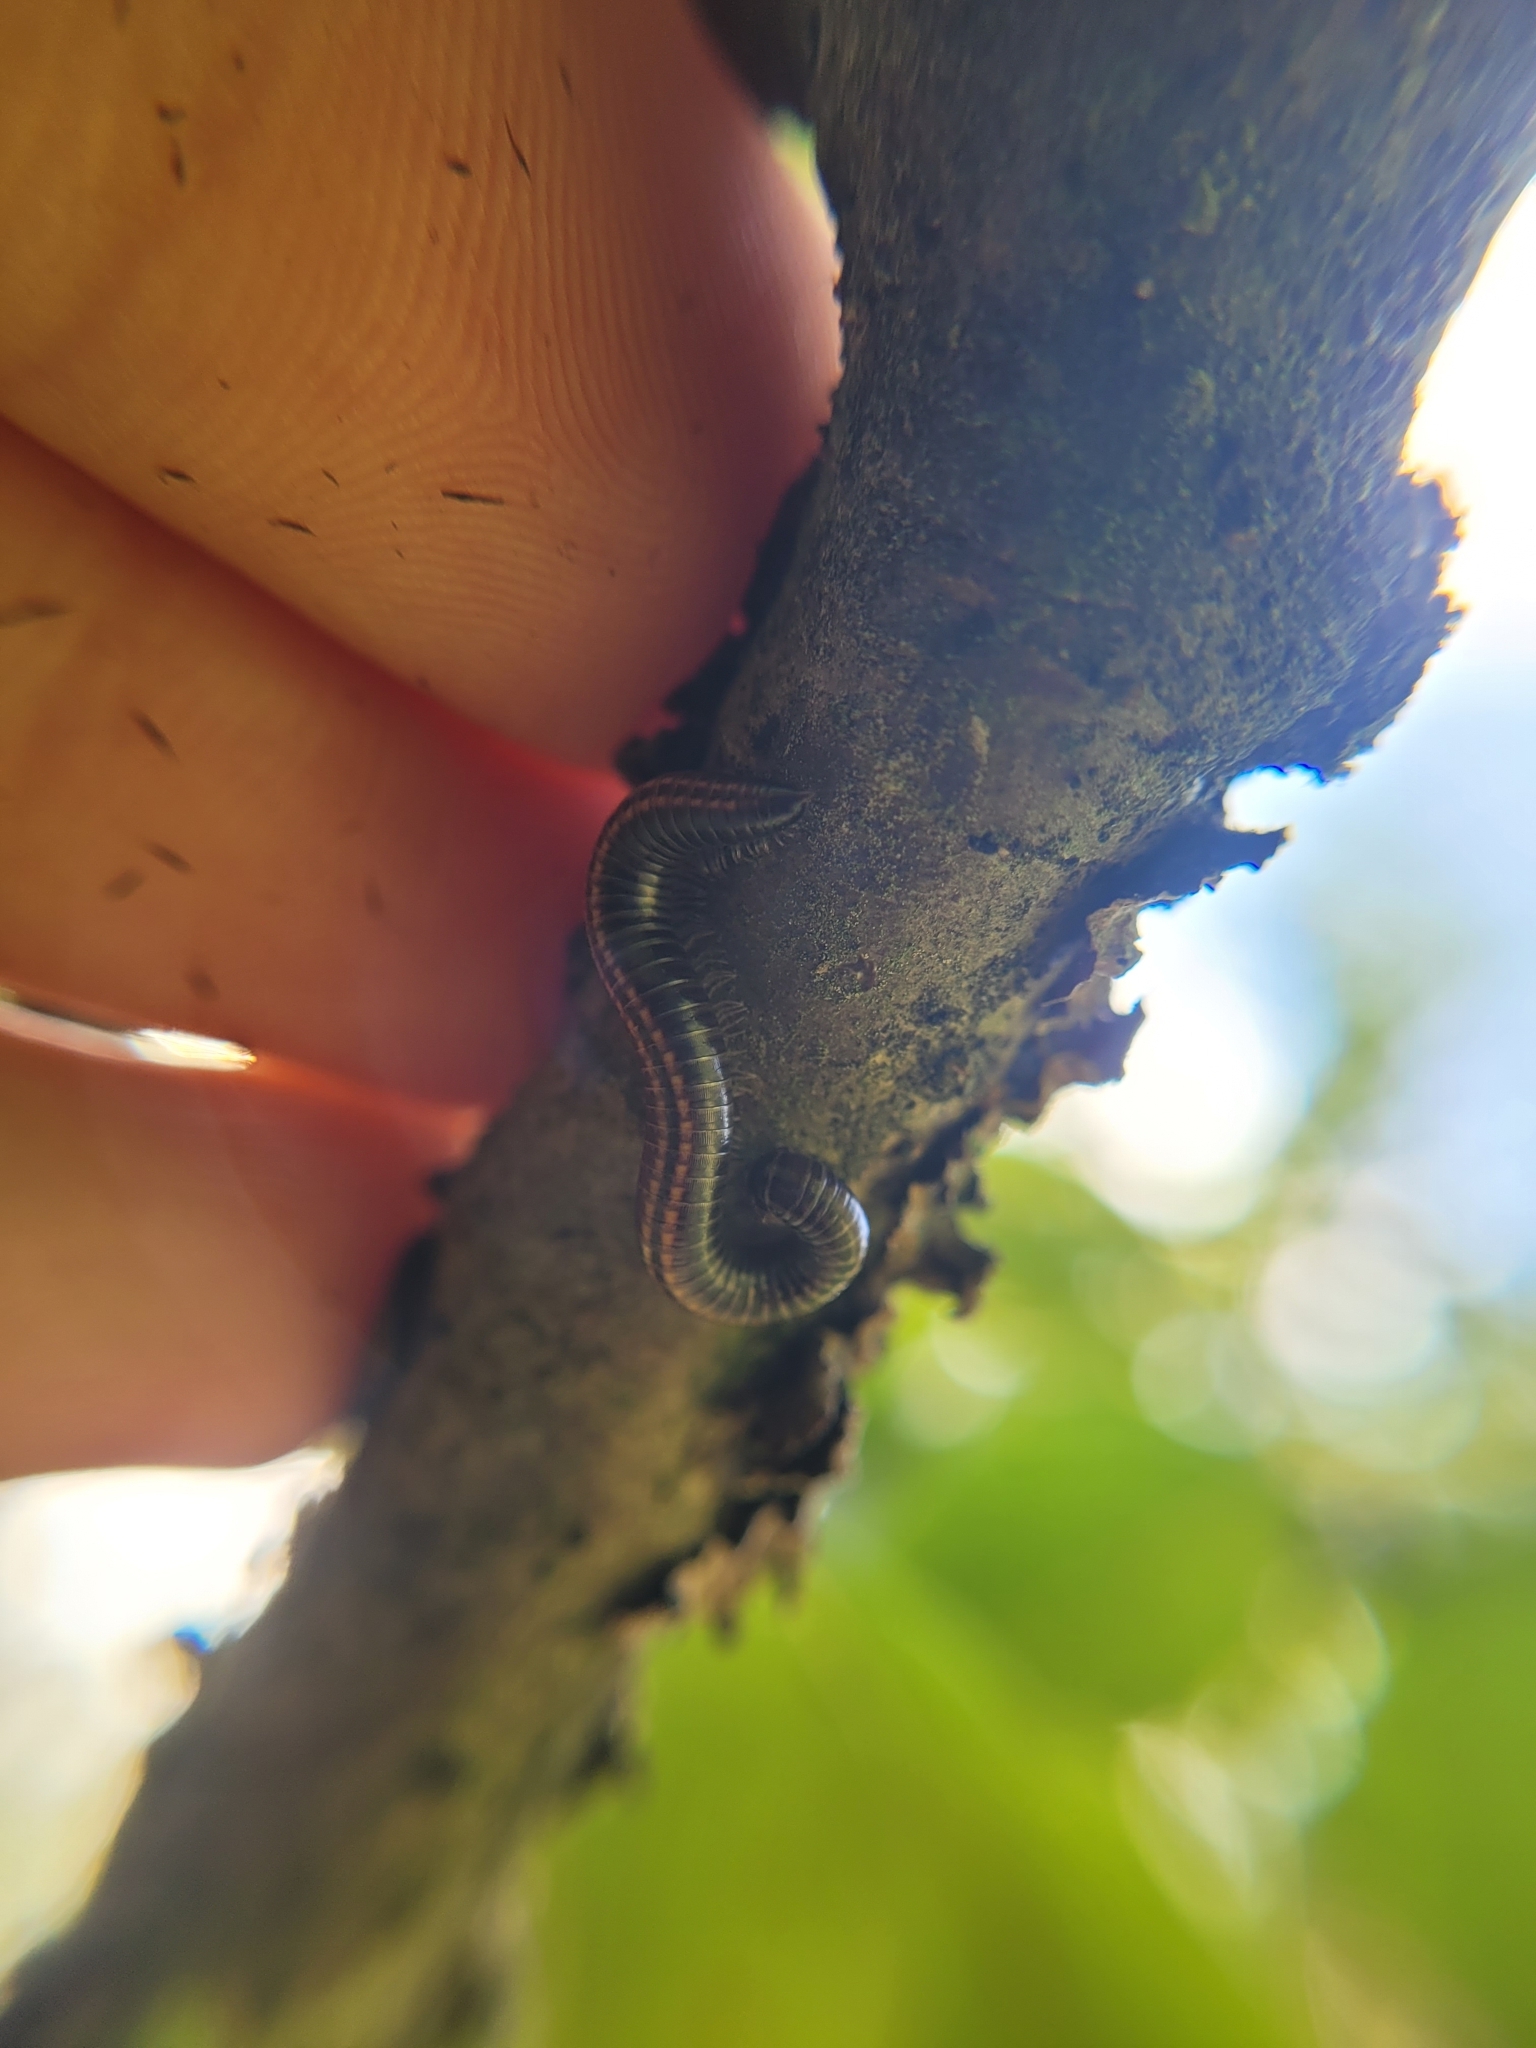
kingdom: Animalia
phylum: Arthropoda
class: Diplopoda
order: Julida
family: Julidae
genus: Ommatoiulus
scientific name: Ommatoiulus sabulosus
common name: Striped millipede
